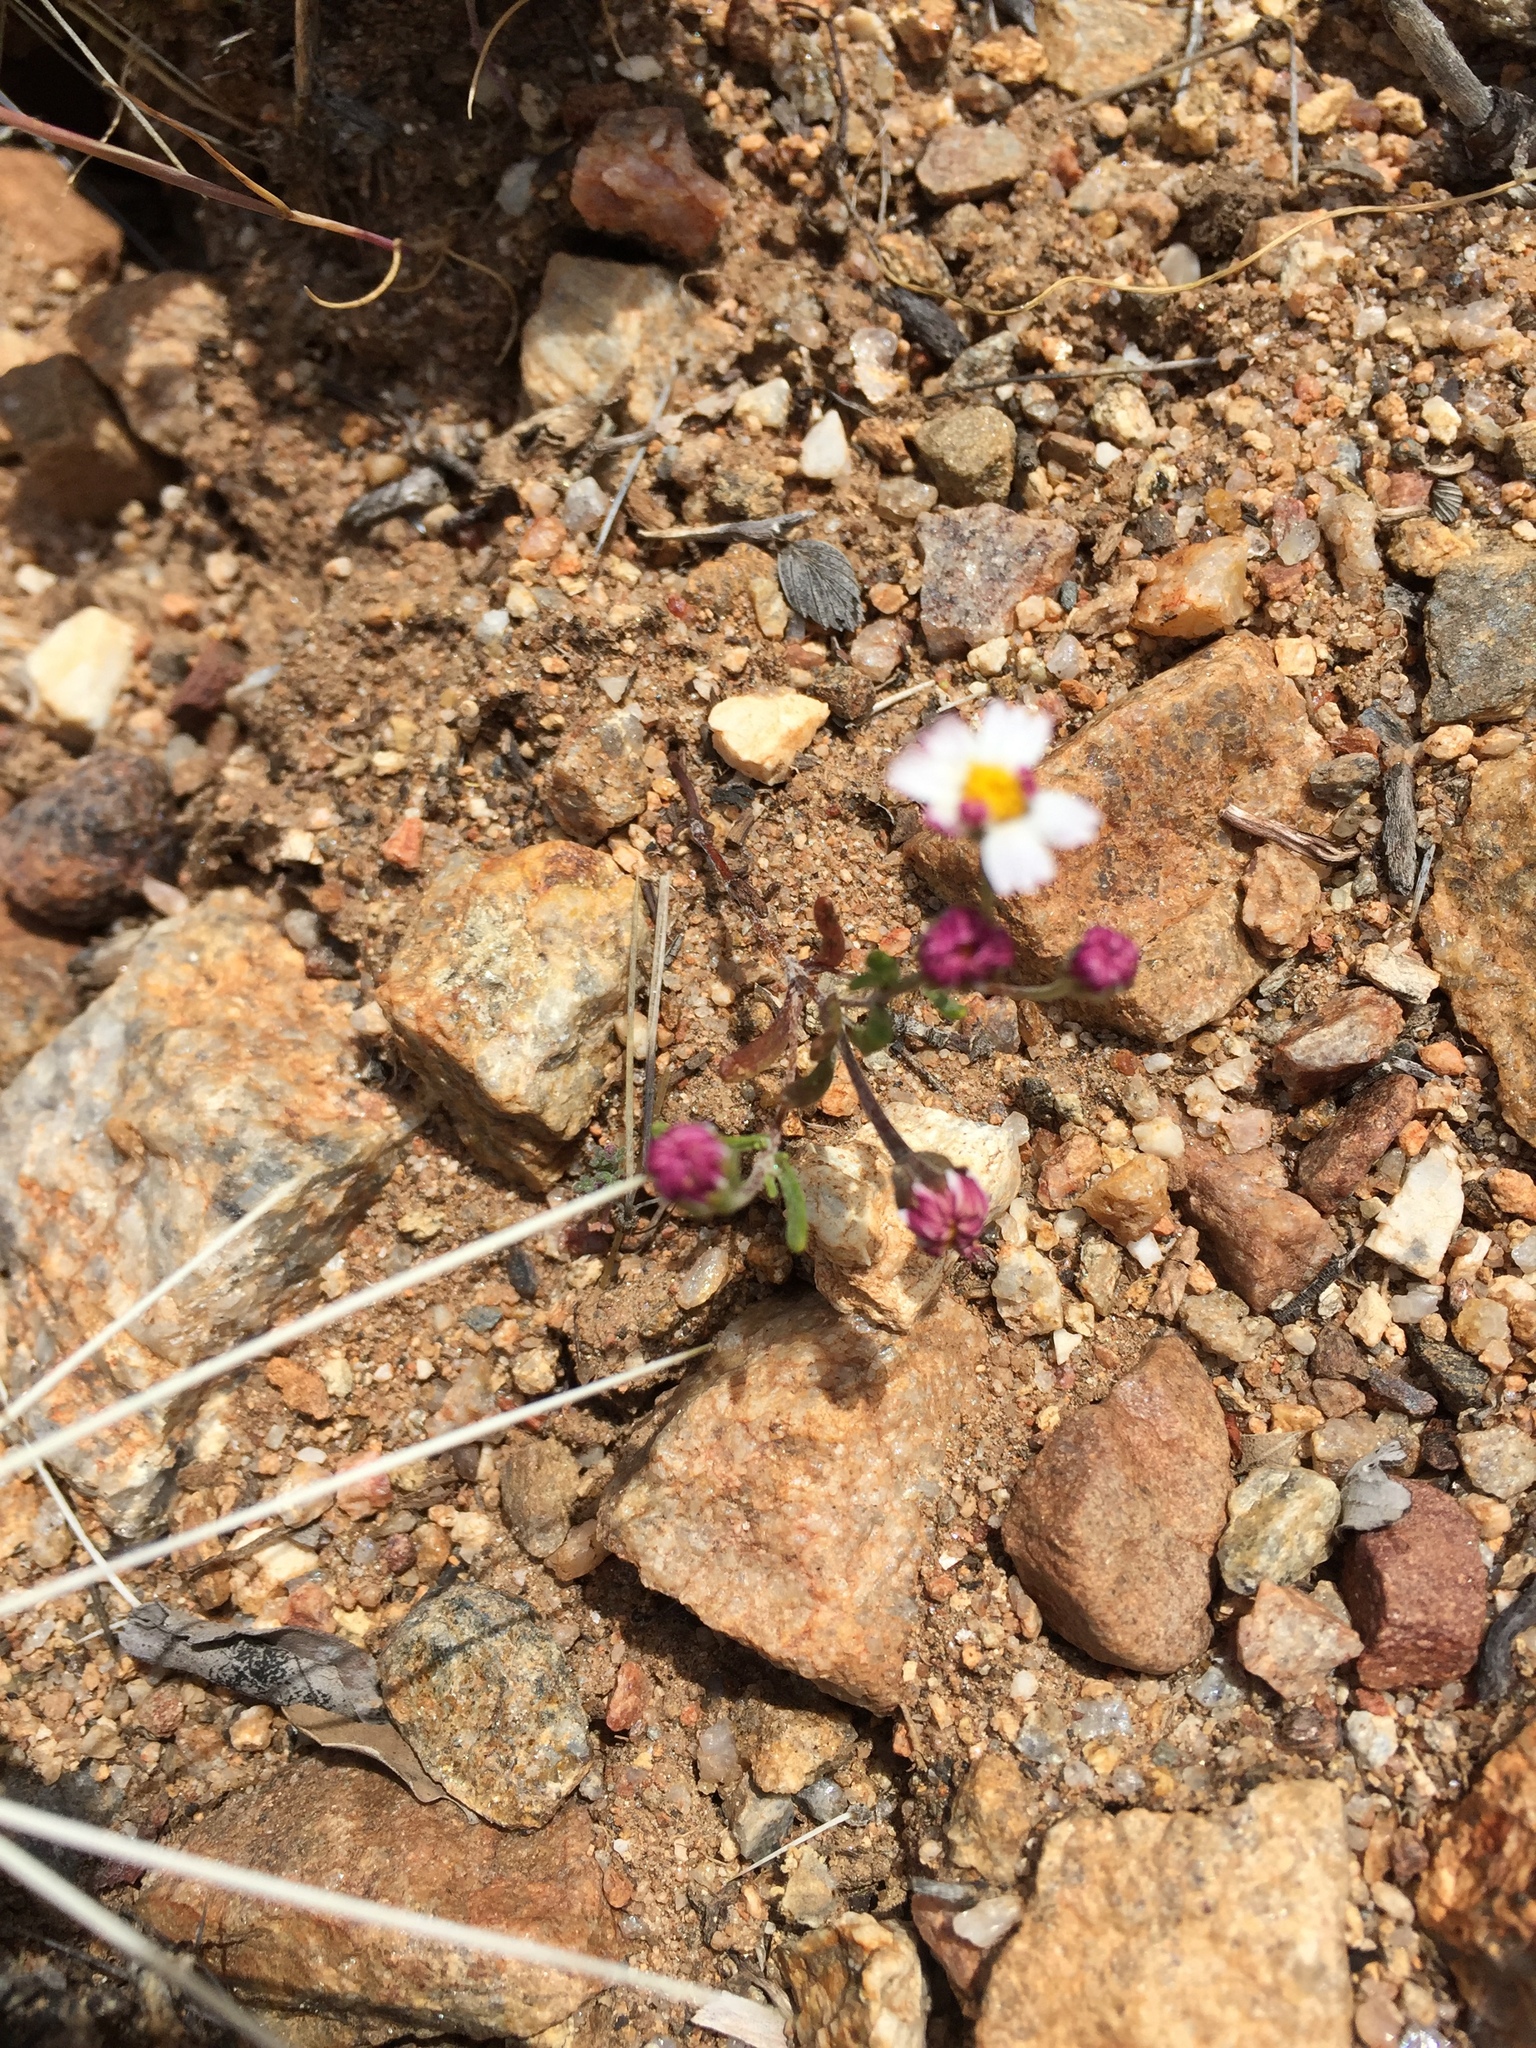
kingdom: Plantae
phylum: Tracheophyta
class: Magnoliopsida
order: Asterales
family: Asteraceae
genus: Syntrichopappus
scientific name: Syntrichopappus lemmonii
